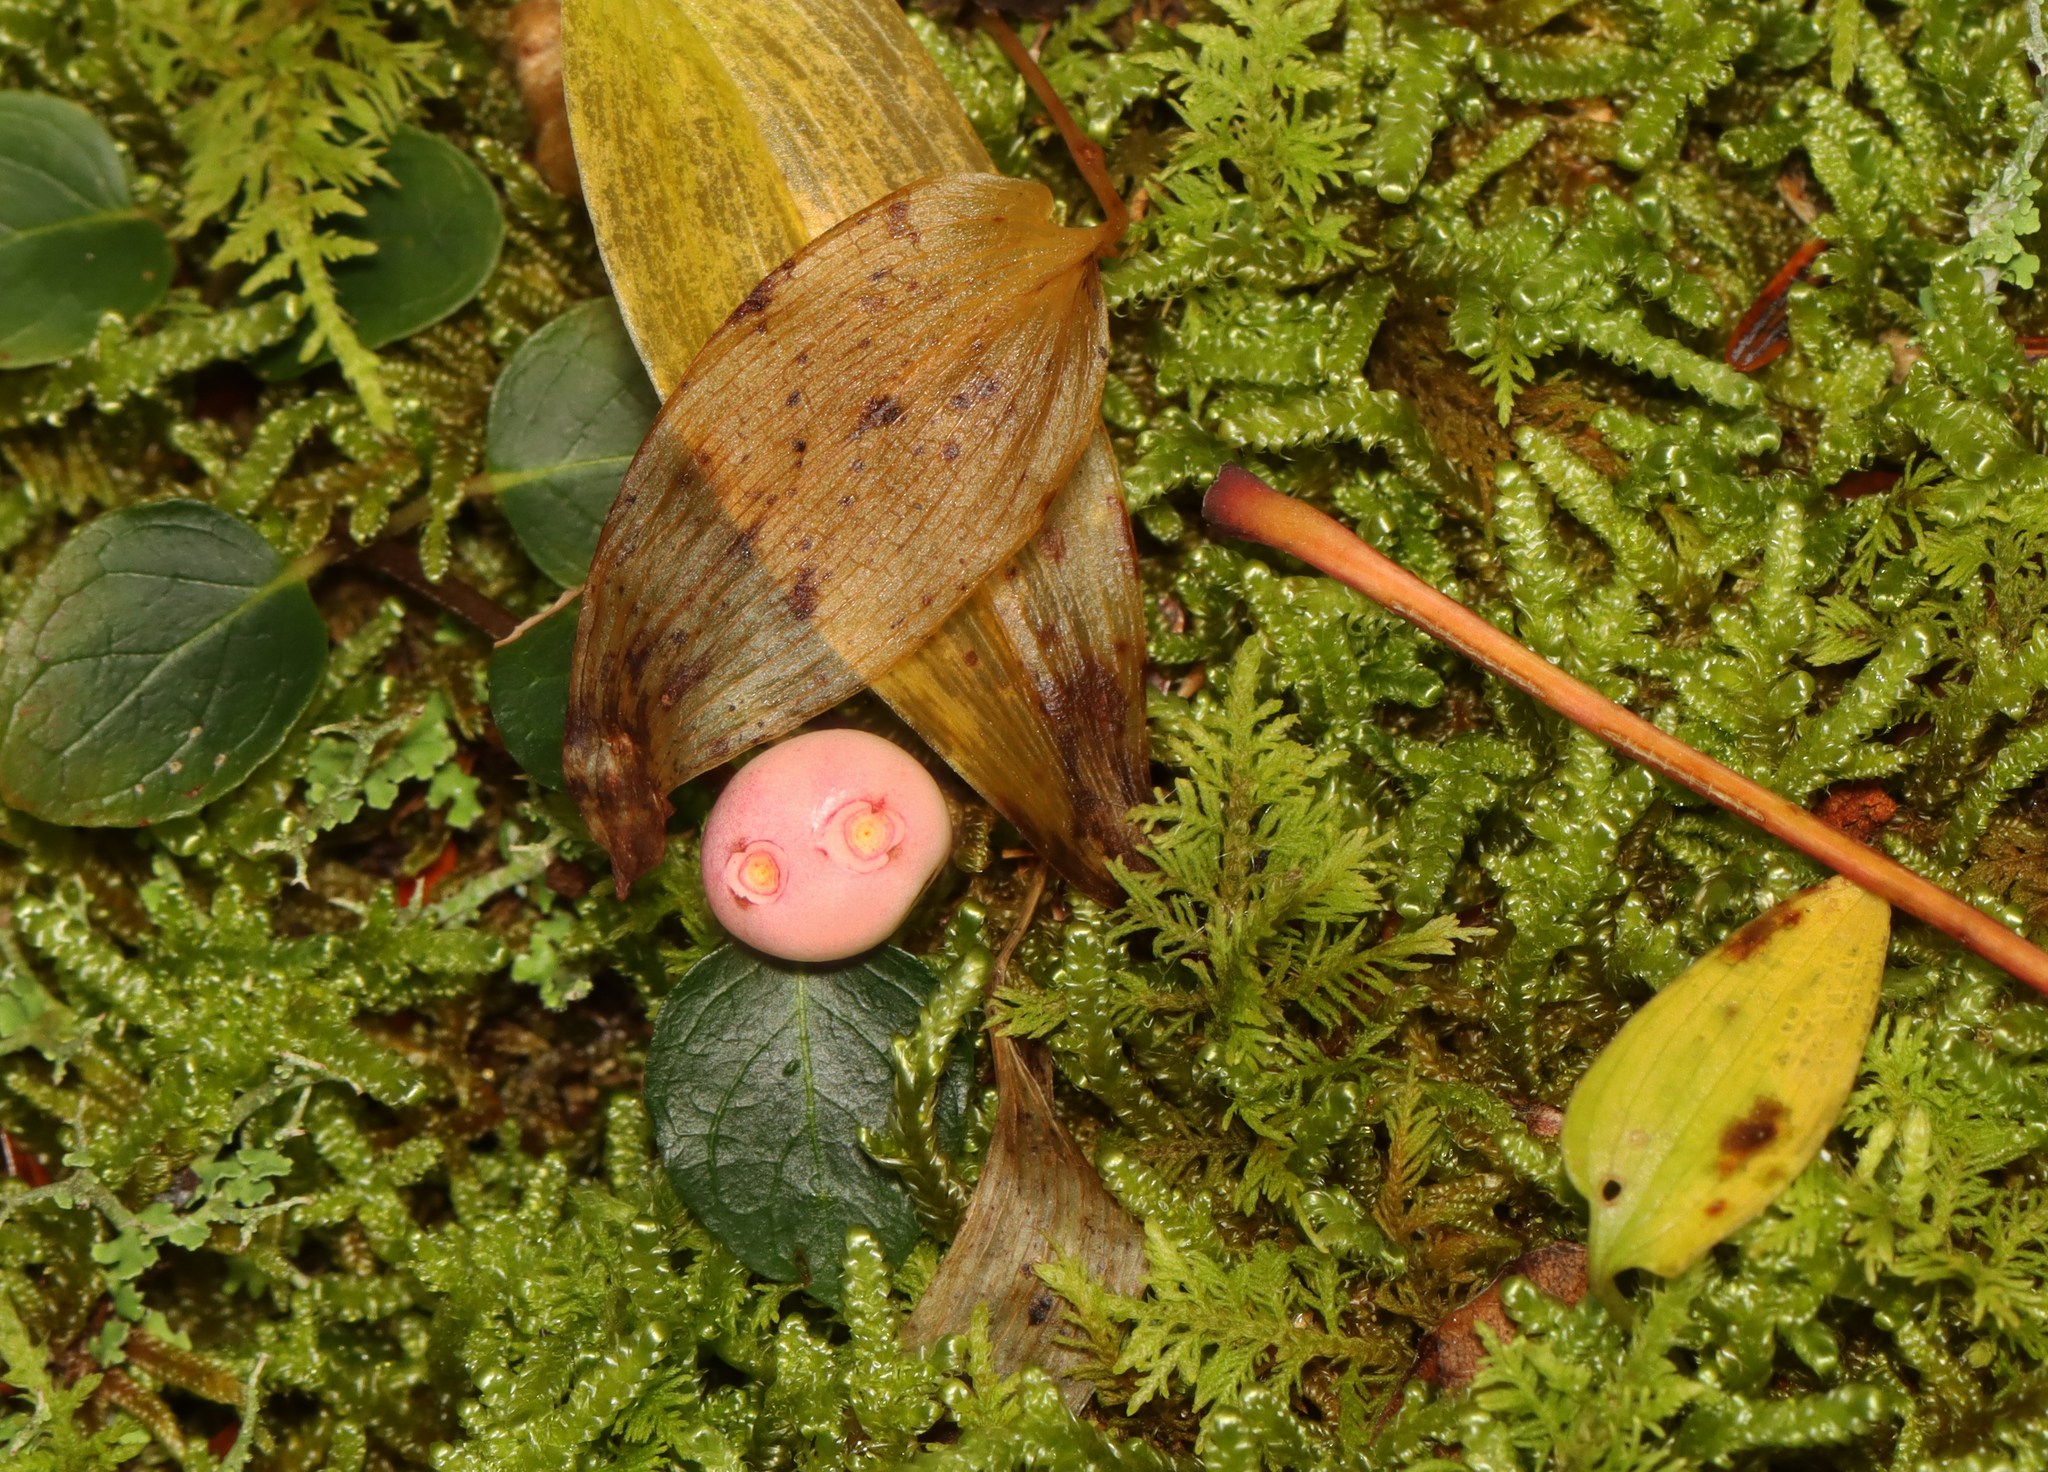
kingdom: Plantae
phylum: Tracheophyta
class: Magnoliopsida
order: Gentianales
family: Rubiaceae
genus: Mitchella
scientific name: Mitchella repens
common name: Partridge-berry
